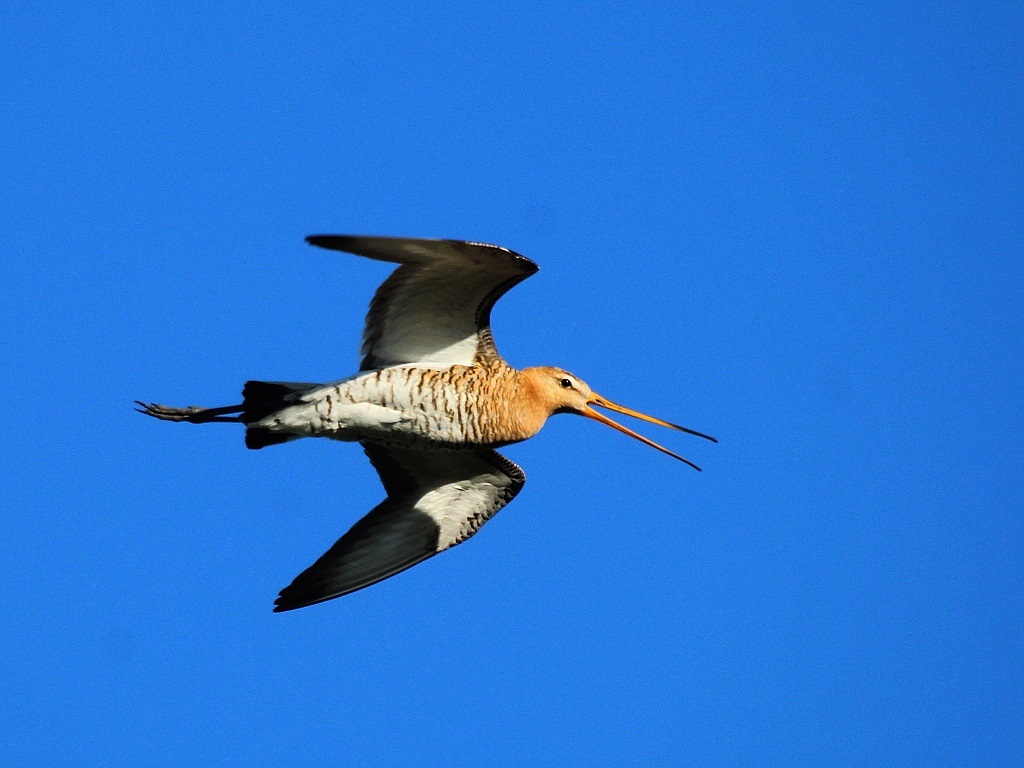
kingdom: Animalia
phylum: Chordata
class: Aves
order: Charadriiformes
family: Scolopacidae
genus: Limosa
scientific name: Limosa limosa
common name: Black-tailed godwit
